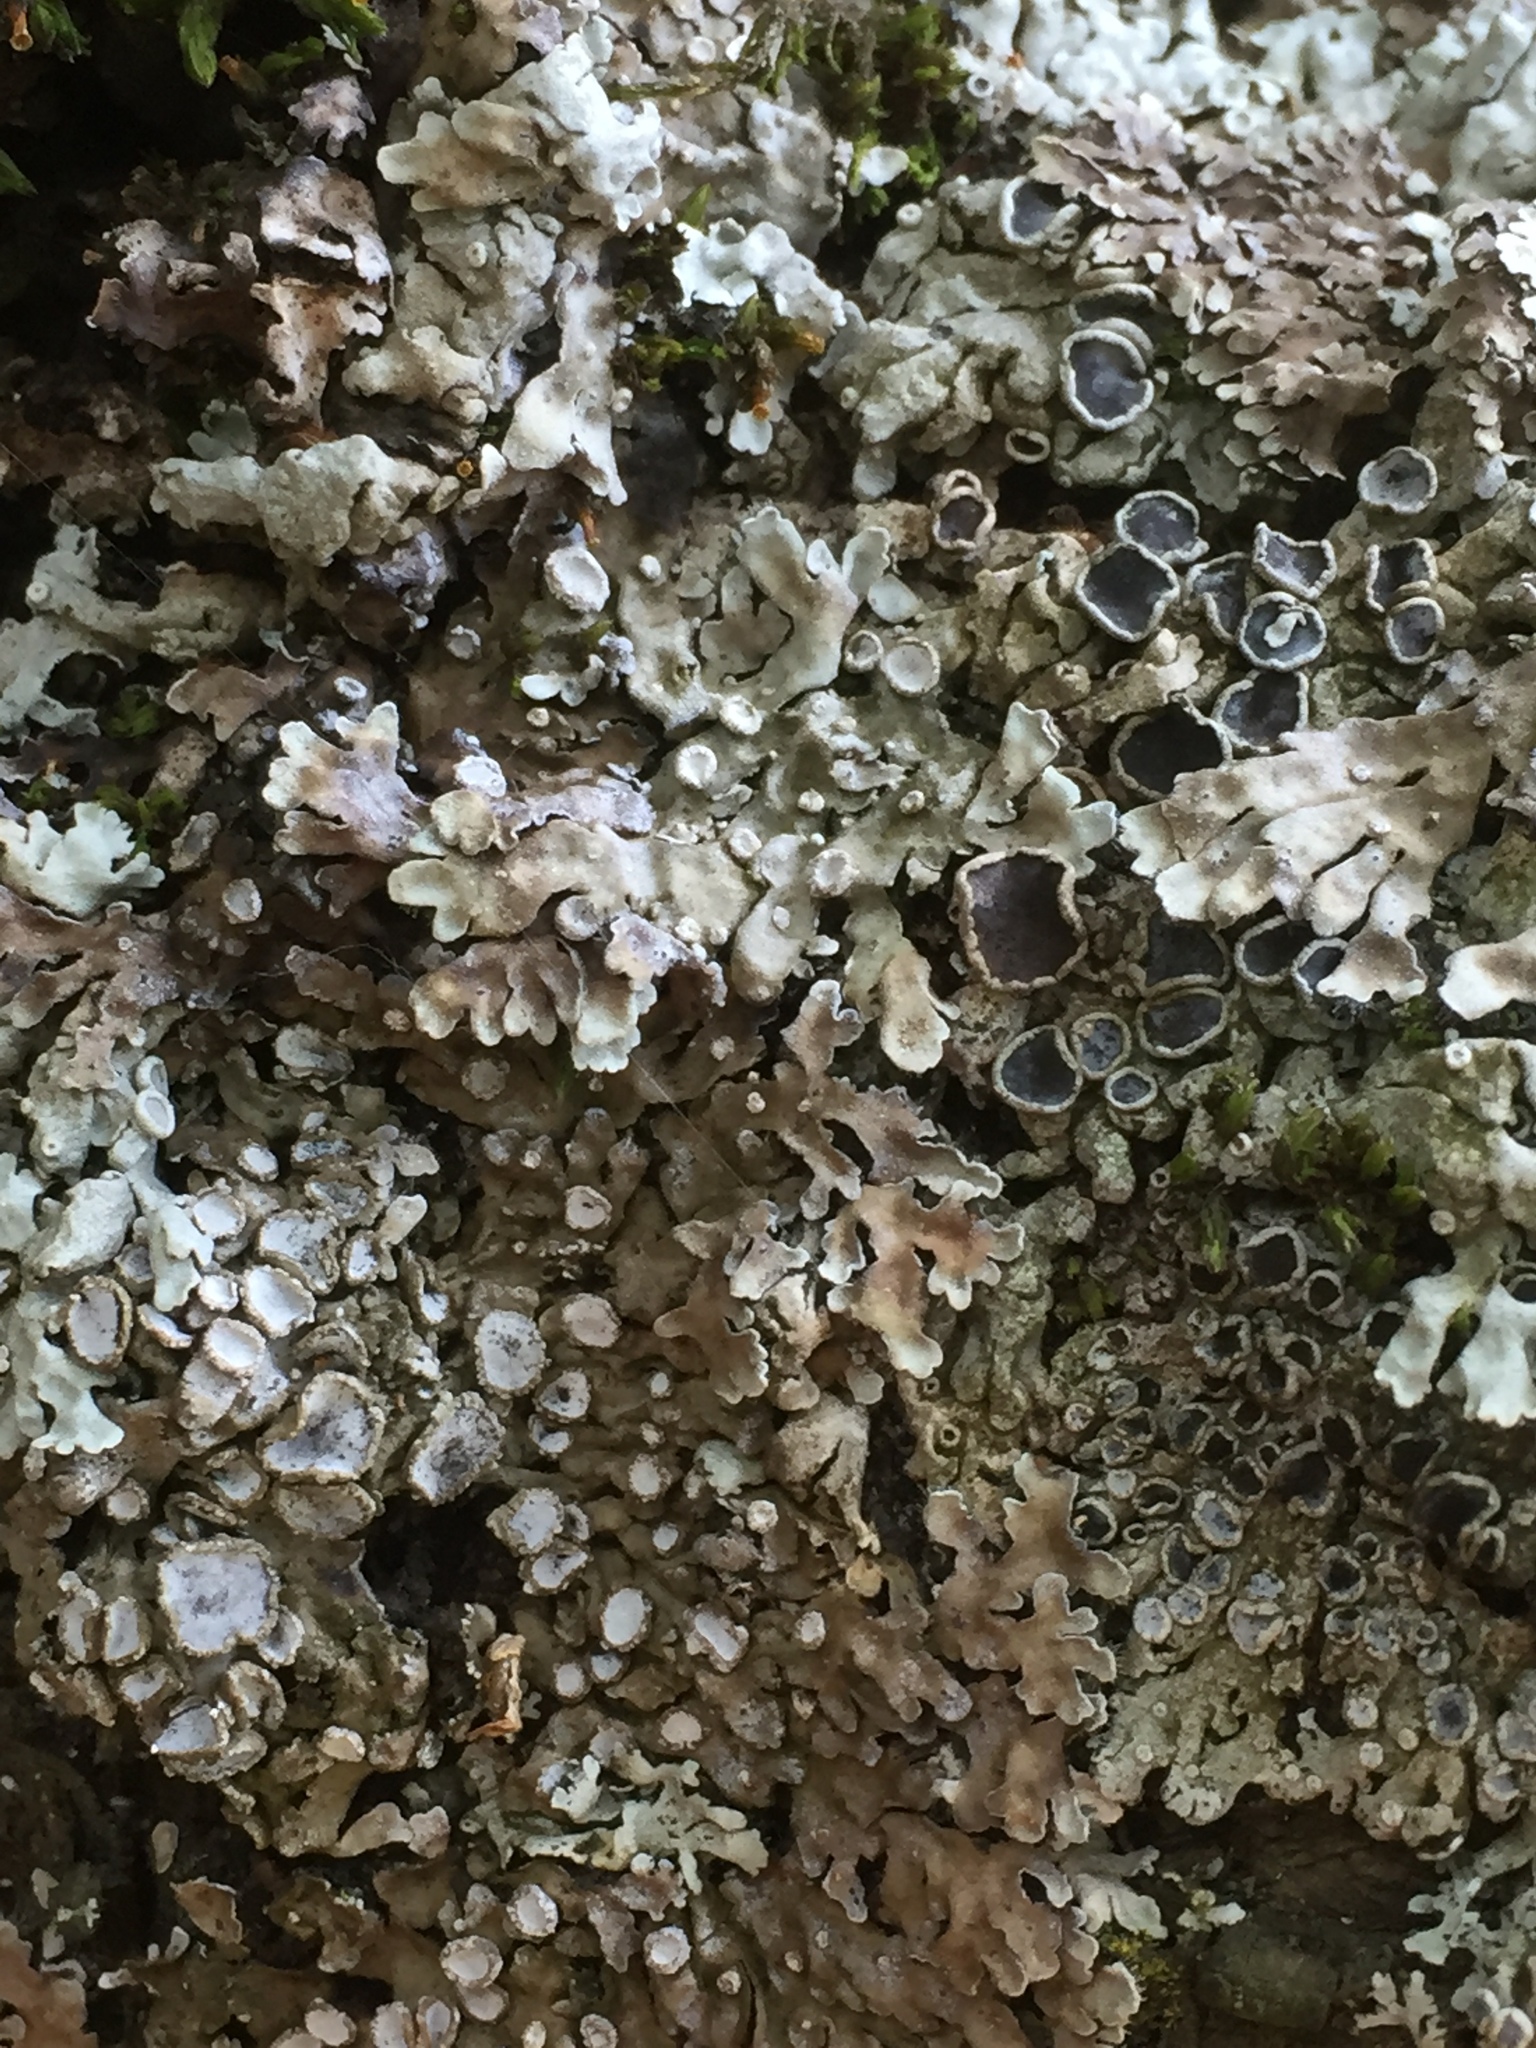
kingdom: Fungi
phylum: Ascomycota
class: Lecanoromycetes
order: Caliciales
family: Physciaceae
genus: Physconia
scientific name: Physconia distorta
